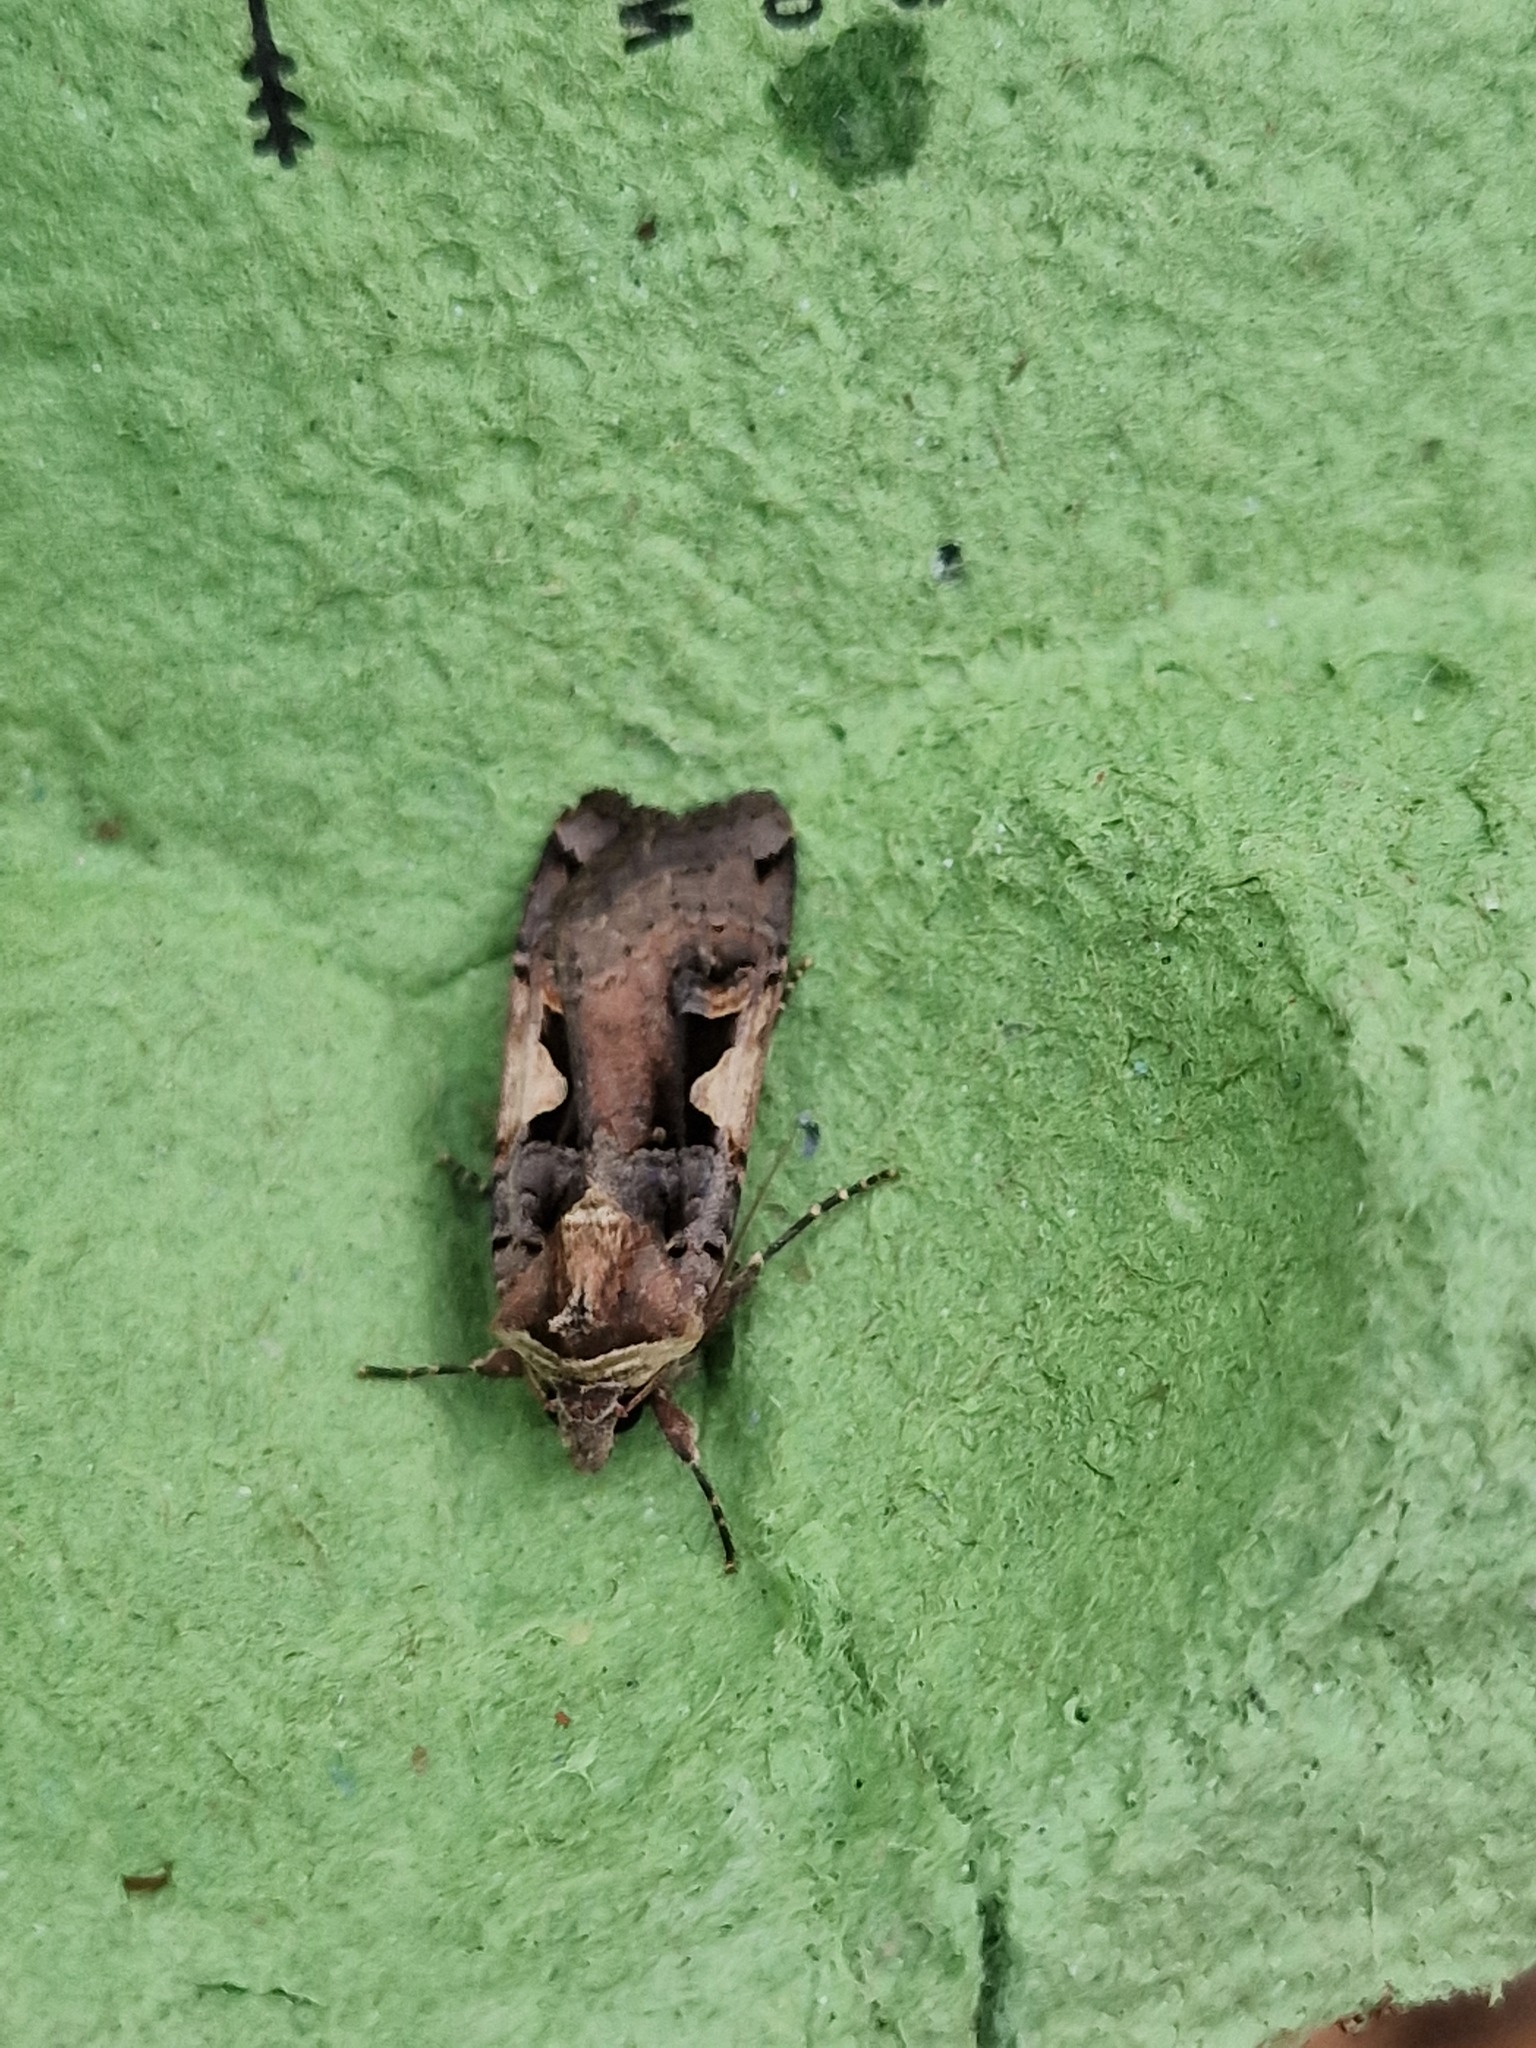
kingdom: Animalia
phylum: Arthropoda
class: Insecta
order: Lepidoptera
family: Noctuidae
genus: Xestia
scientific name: Xestia c-nigrum
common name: Setaceous hebrew character
